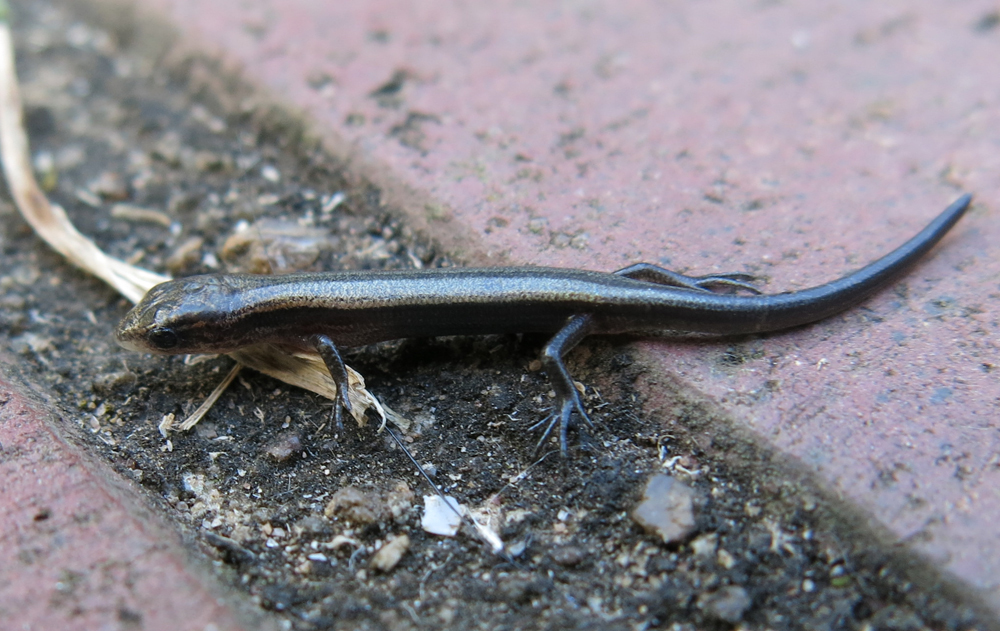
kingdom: Animalia
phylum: Chordata
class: Squamata
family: Scincidae
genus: Panaspis
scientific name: Panaspis wahlbergii
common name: Angolan snake-eyed skink
